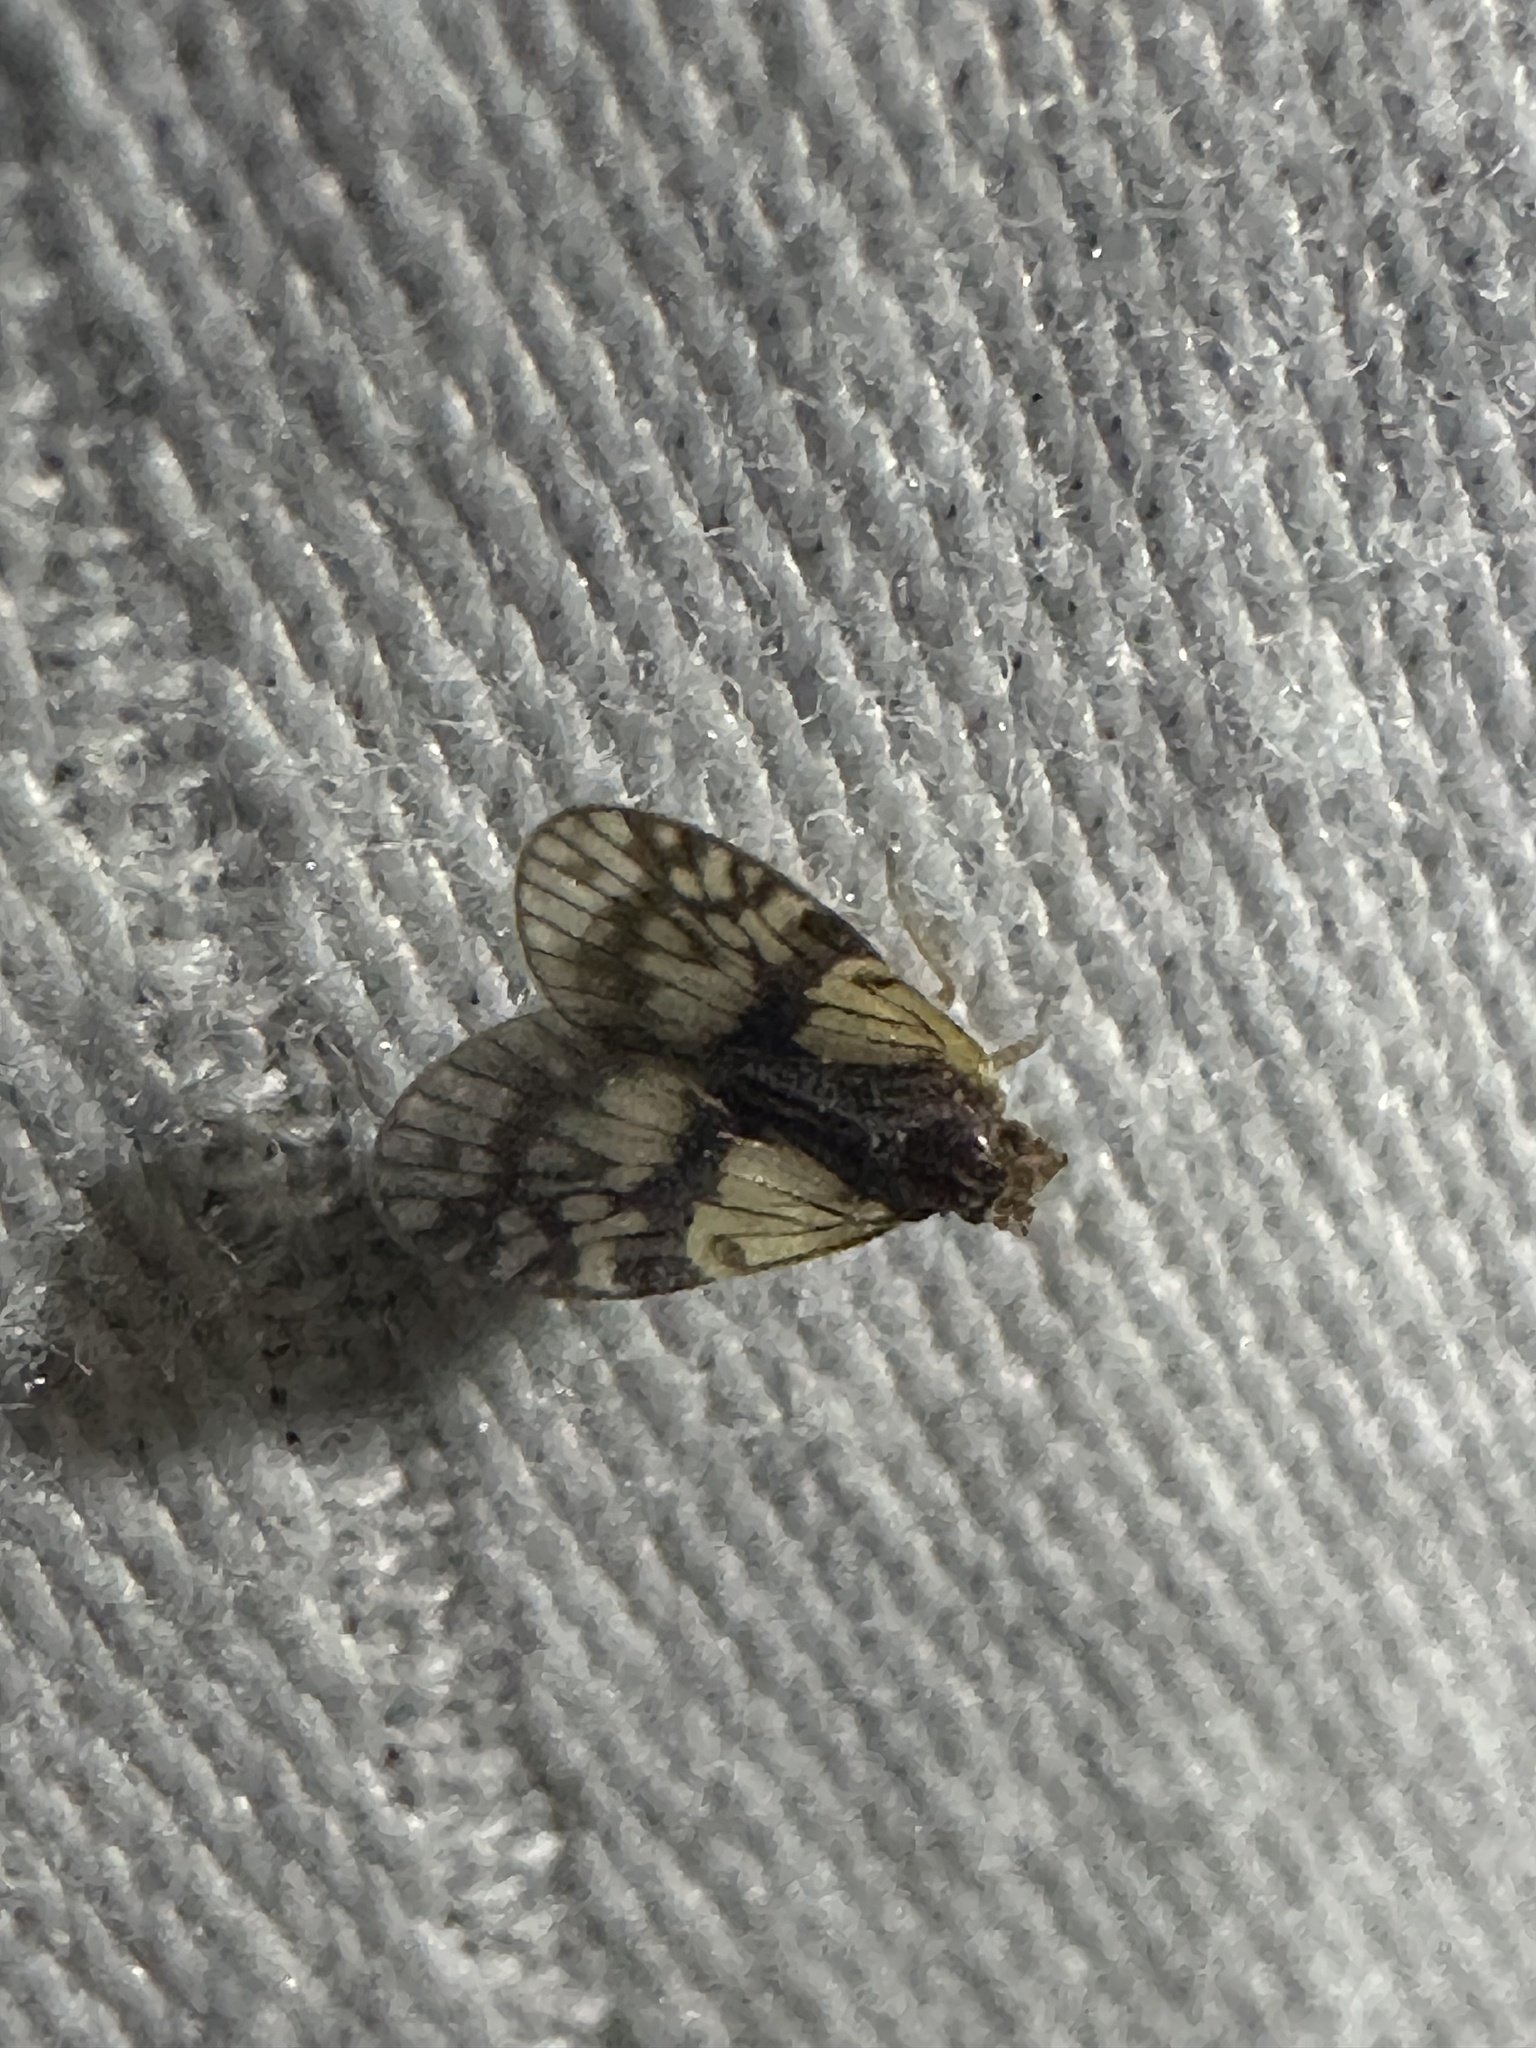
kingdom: Animalia
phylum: Arthropoda
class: Insecta
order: Hemiptera
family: Cixiidae
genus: Bothriocera
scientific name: Bothriocera datuna
